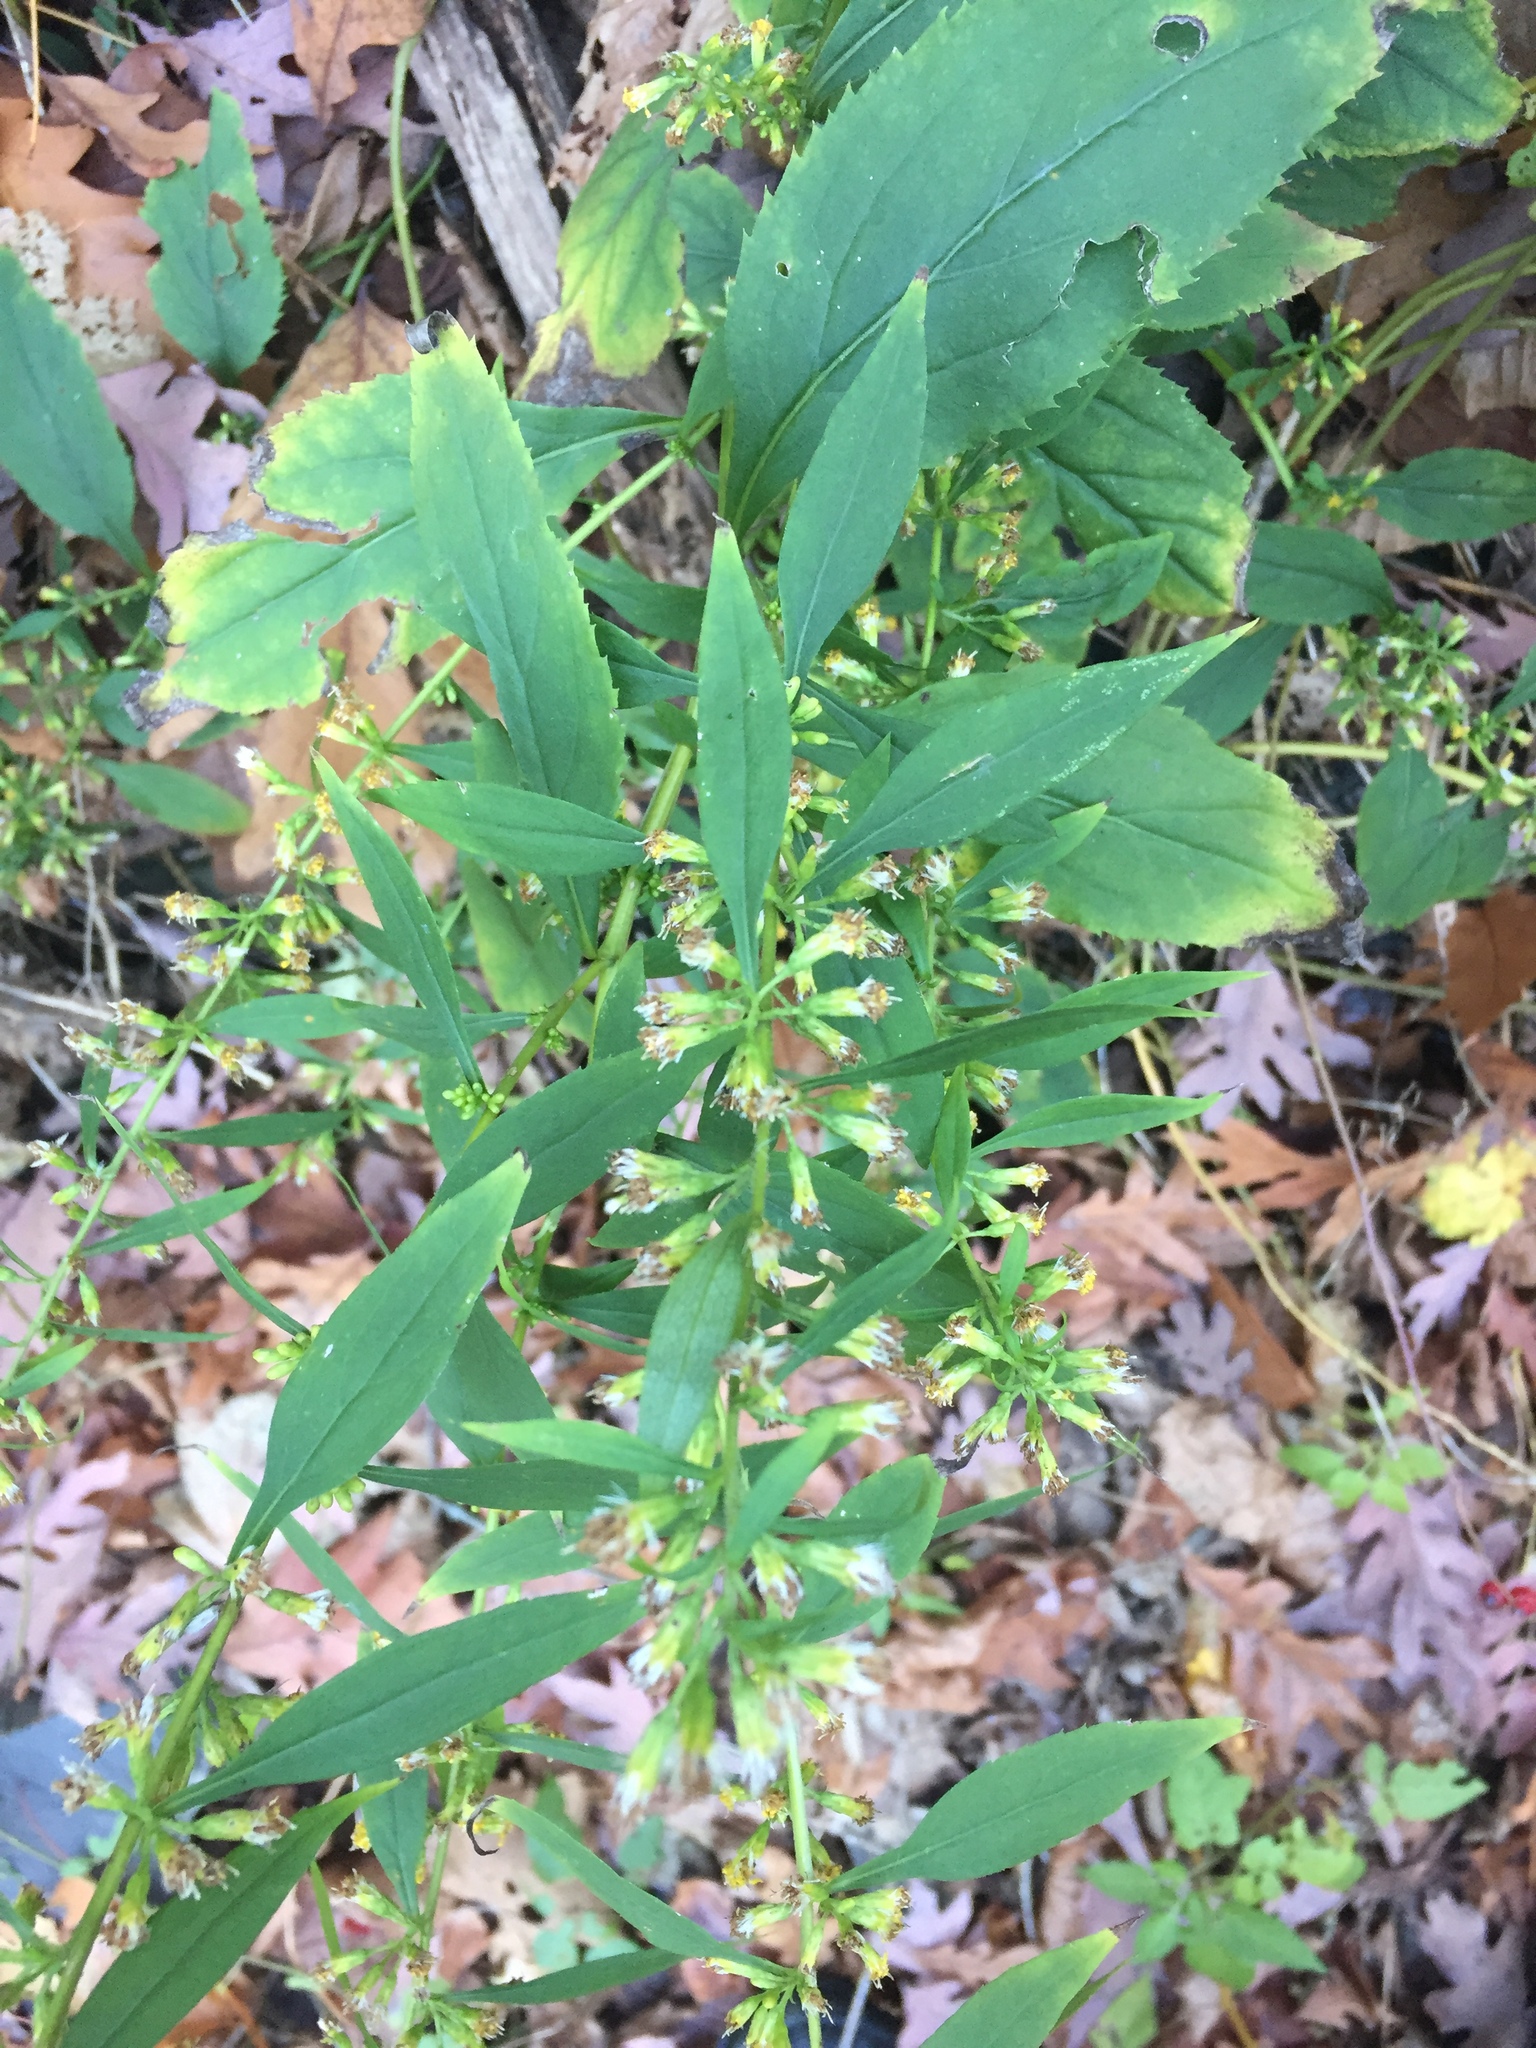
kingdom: Plantae
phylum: Tracheophyta
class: Magnoliopsida
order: Asterales
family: Asteraceae
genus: Solidago
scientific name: Solidago caesia
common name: Woodland goldenrod
